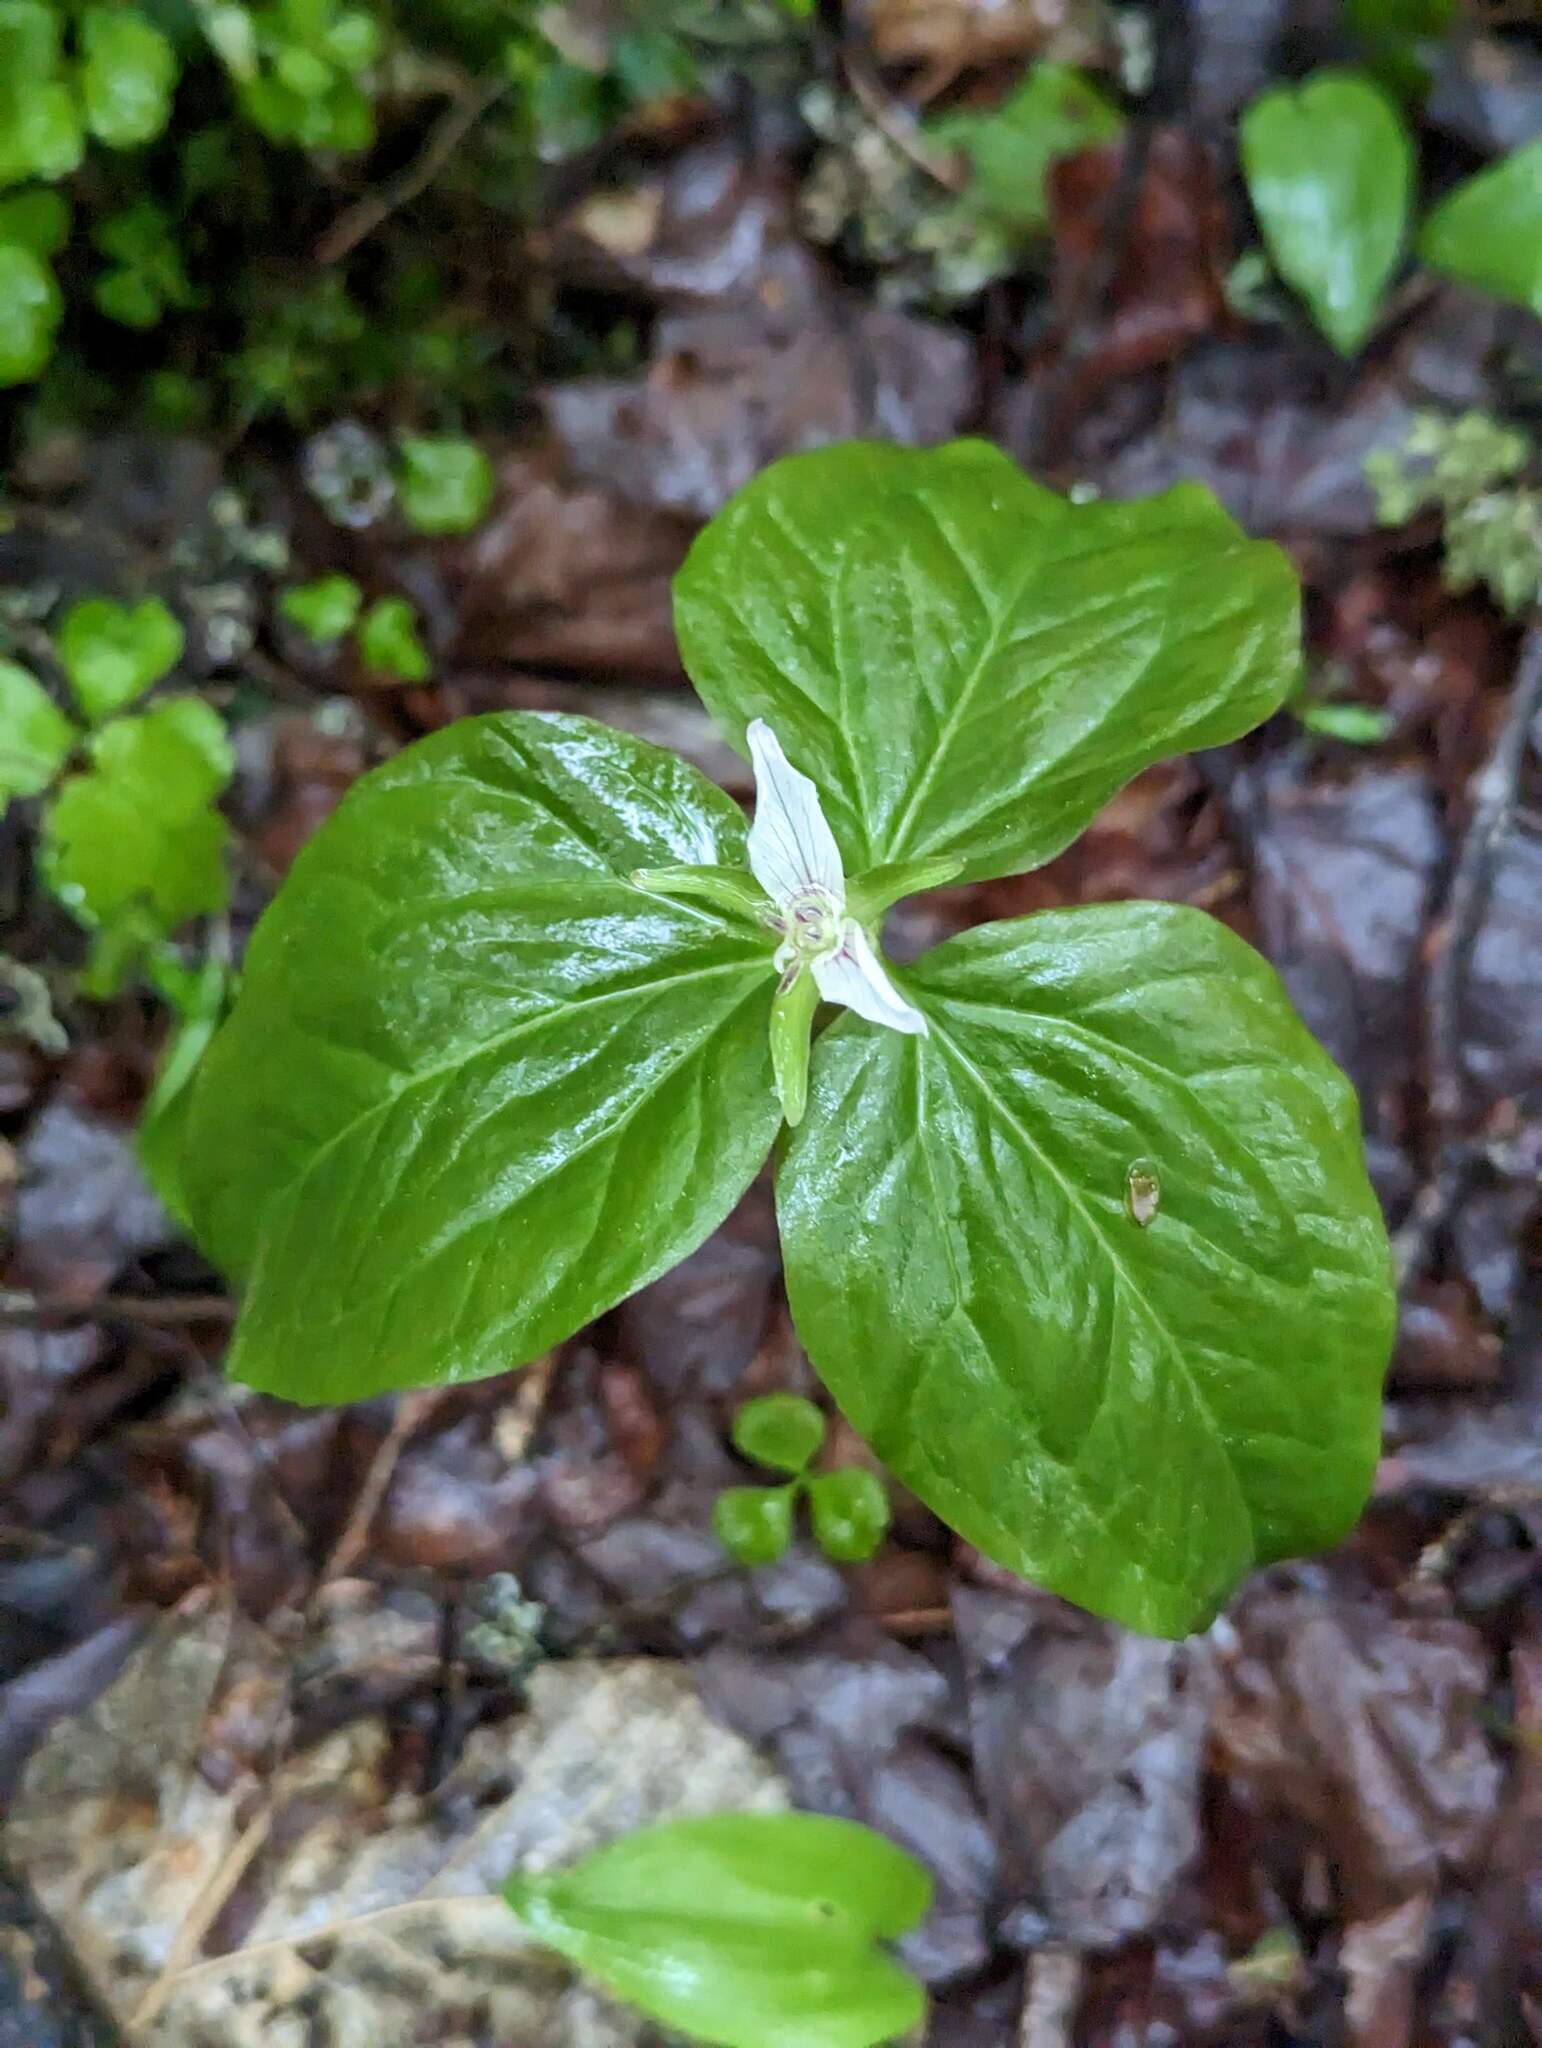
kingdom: Plantae
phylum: Tracheophyta
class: Liliopsida
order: Liliales
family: Melanthiaceae
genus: Trillium
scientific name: Trillium undulatum
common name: Paint trillium
